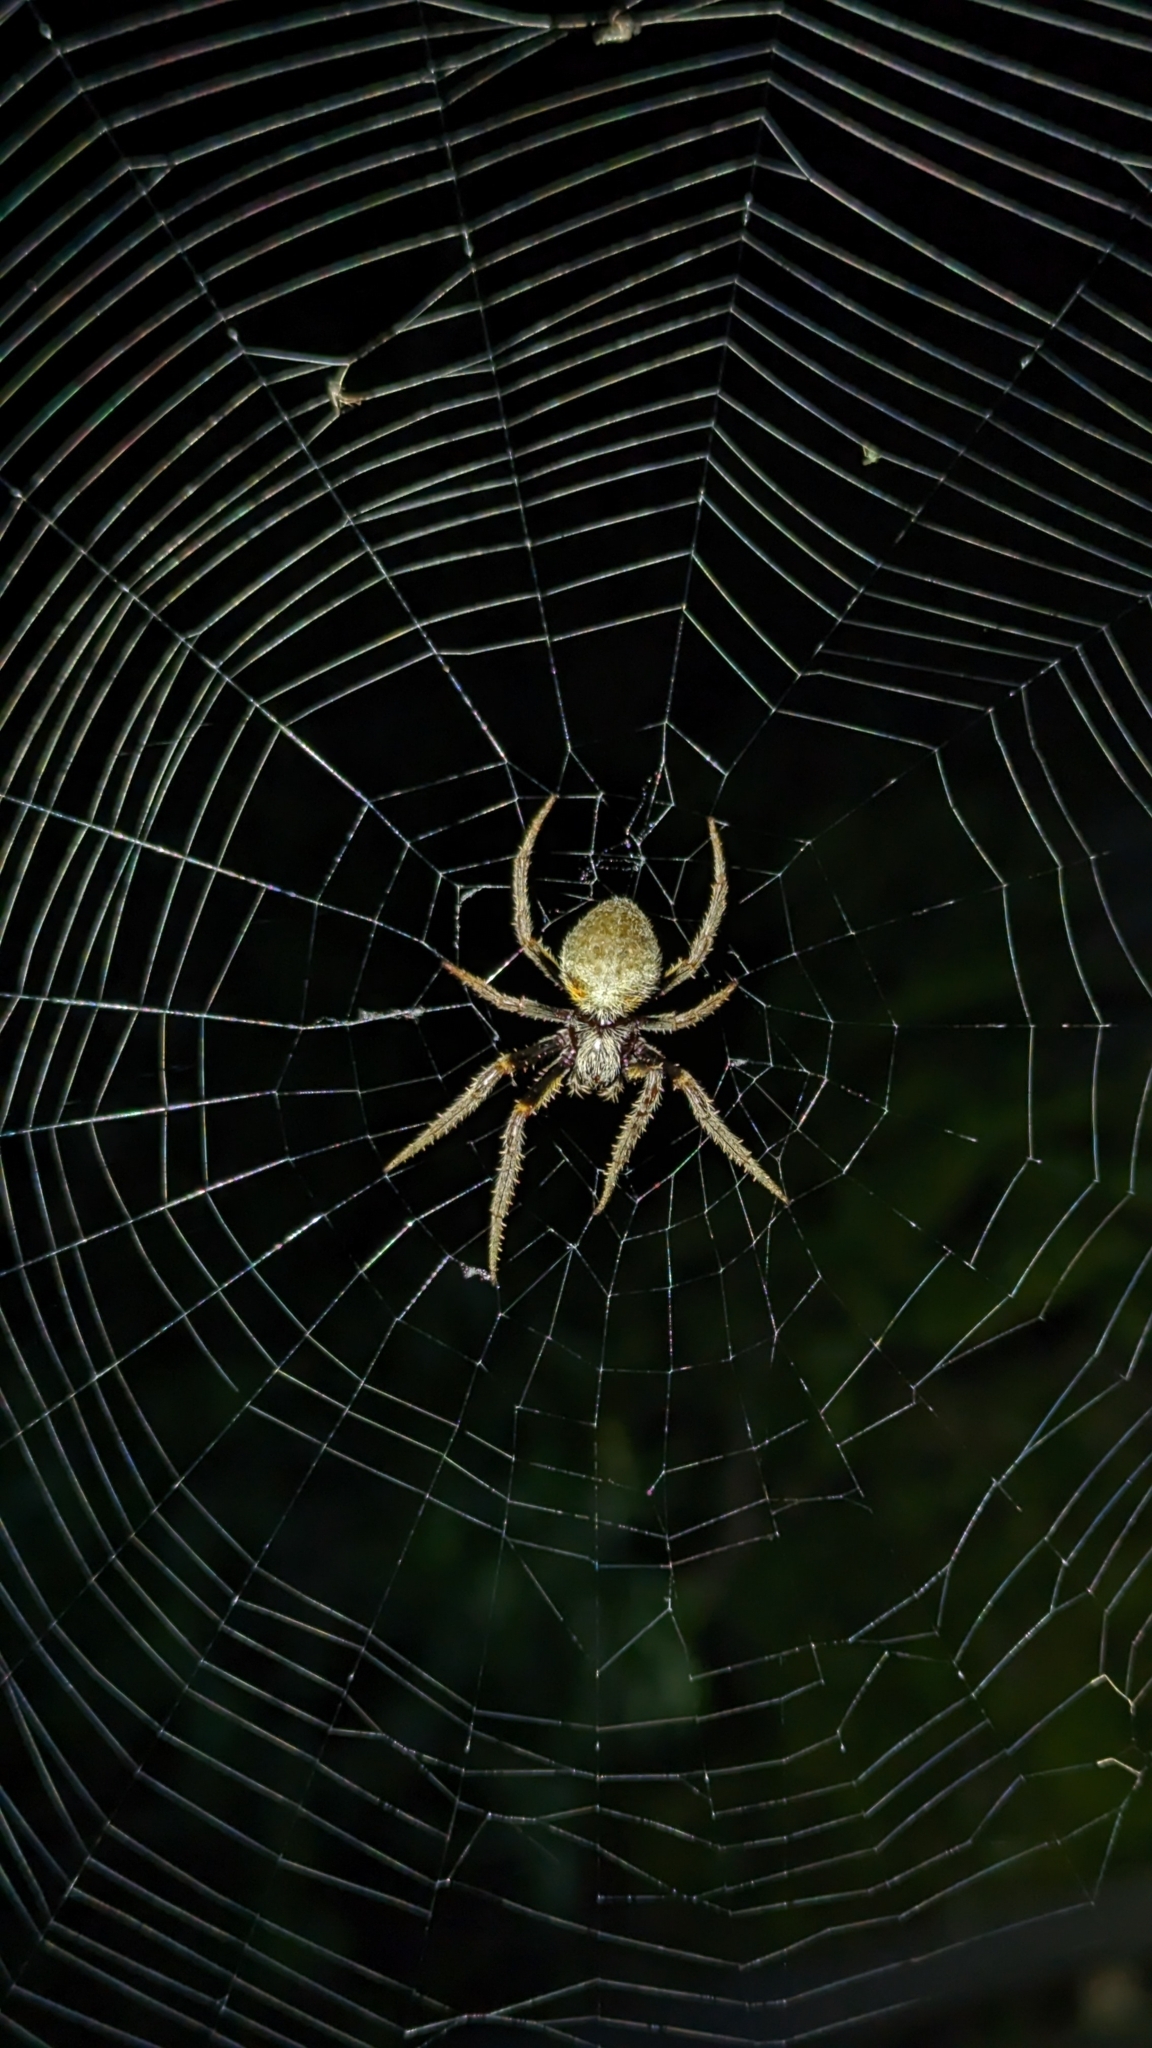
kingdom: Animalia
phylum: Arthropoda
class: Arachnida
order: Araneae
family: Araneidae
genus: Eriophora
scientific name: Eriophora ravilla
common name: Orb weavers
